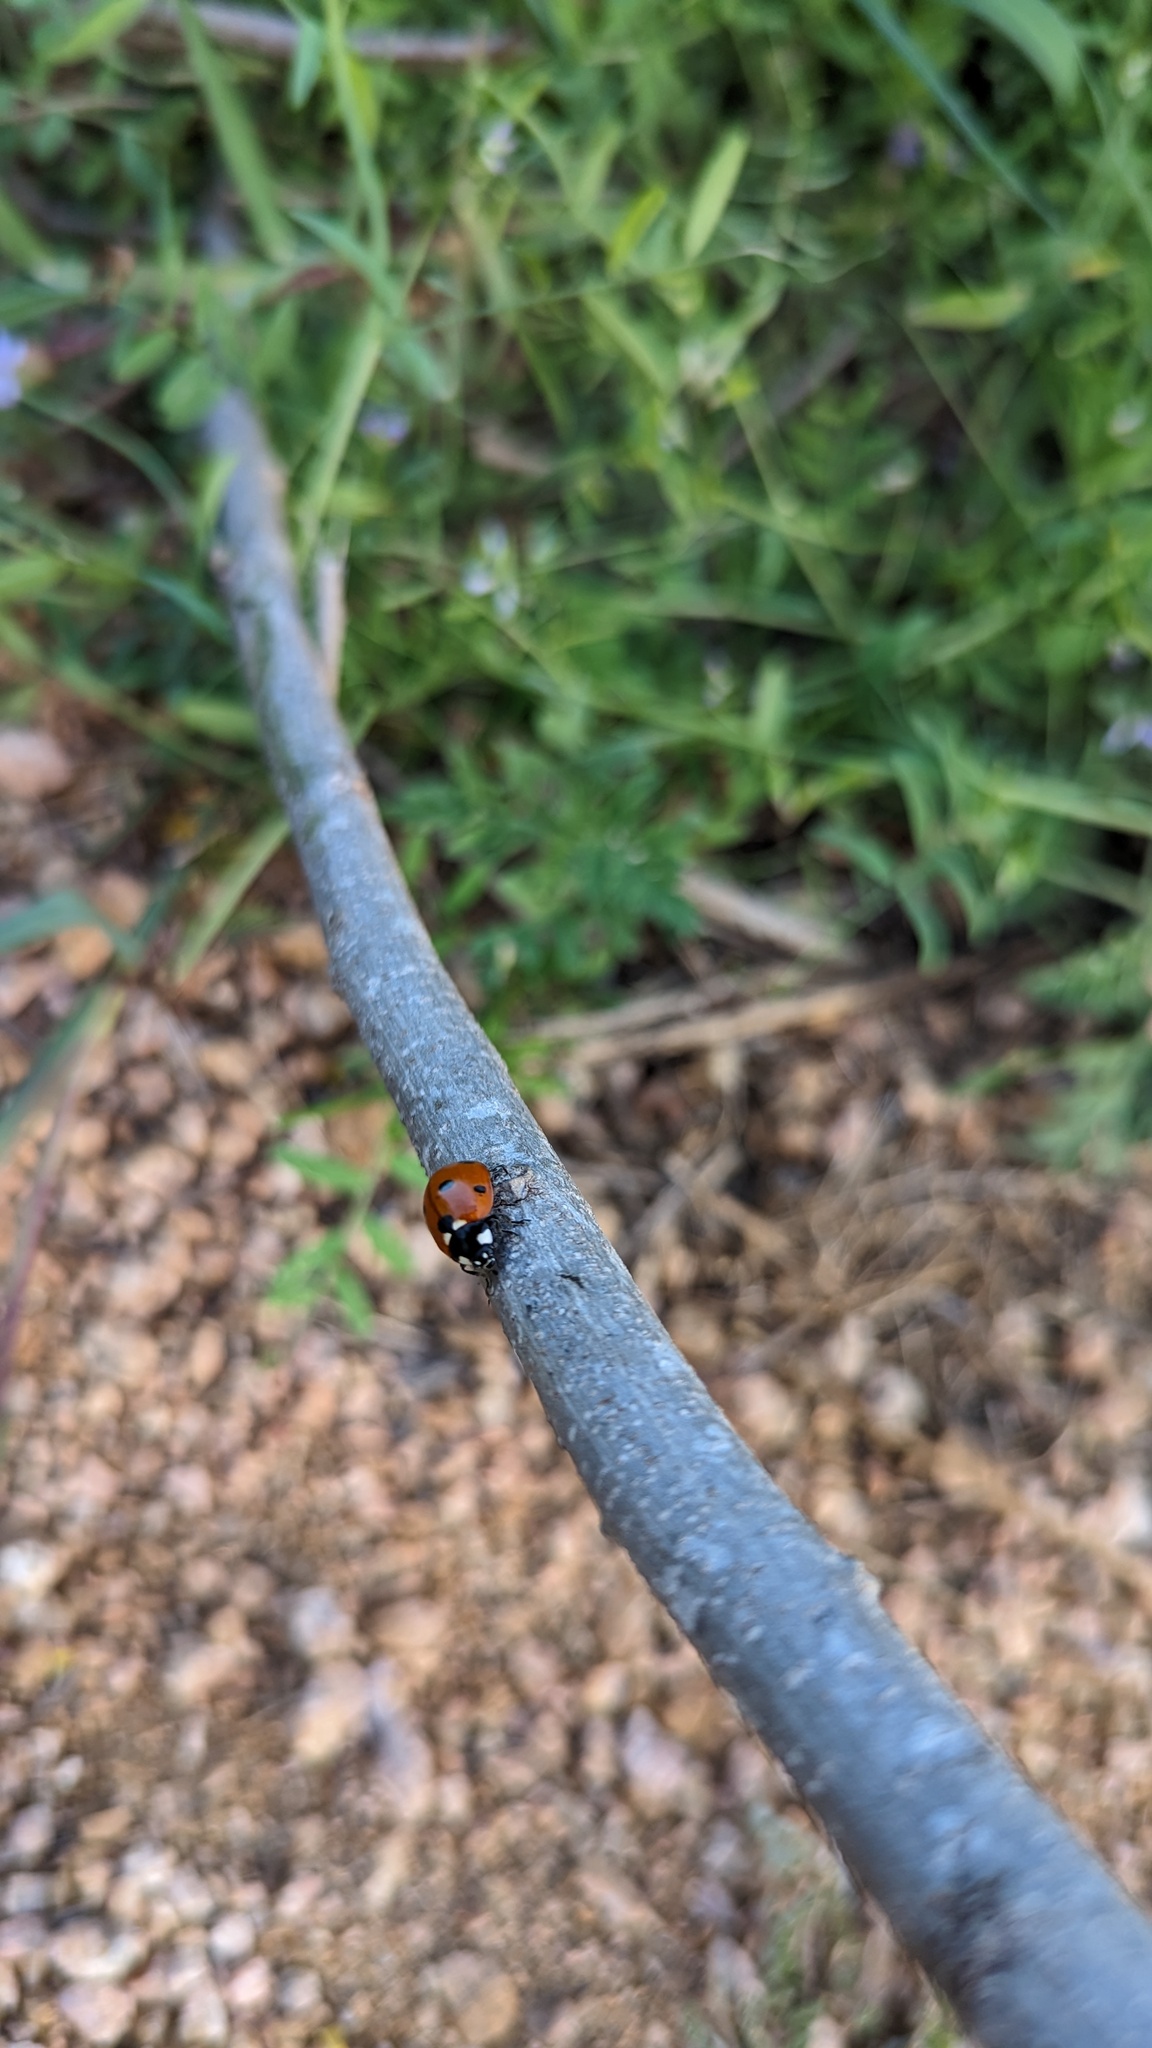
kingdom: Animalia
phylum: Arthropoda
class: Insecta
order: Coleoptera
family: Coccinellidae
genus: Coccinella
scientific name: Coccinella septempunctata
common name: Sevenspotted lady beetle
